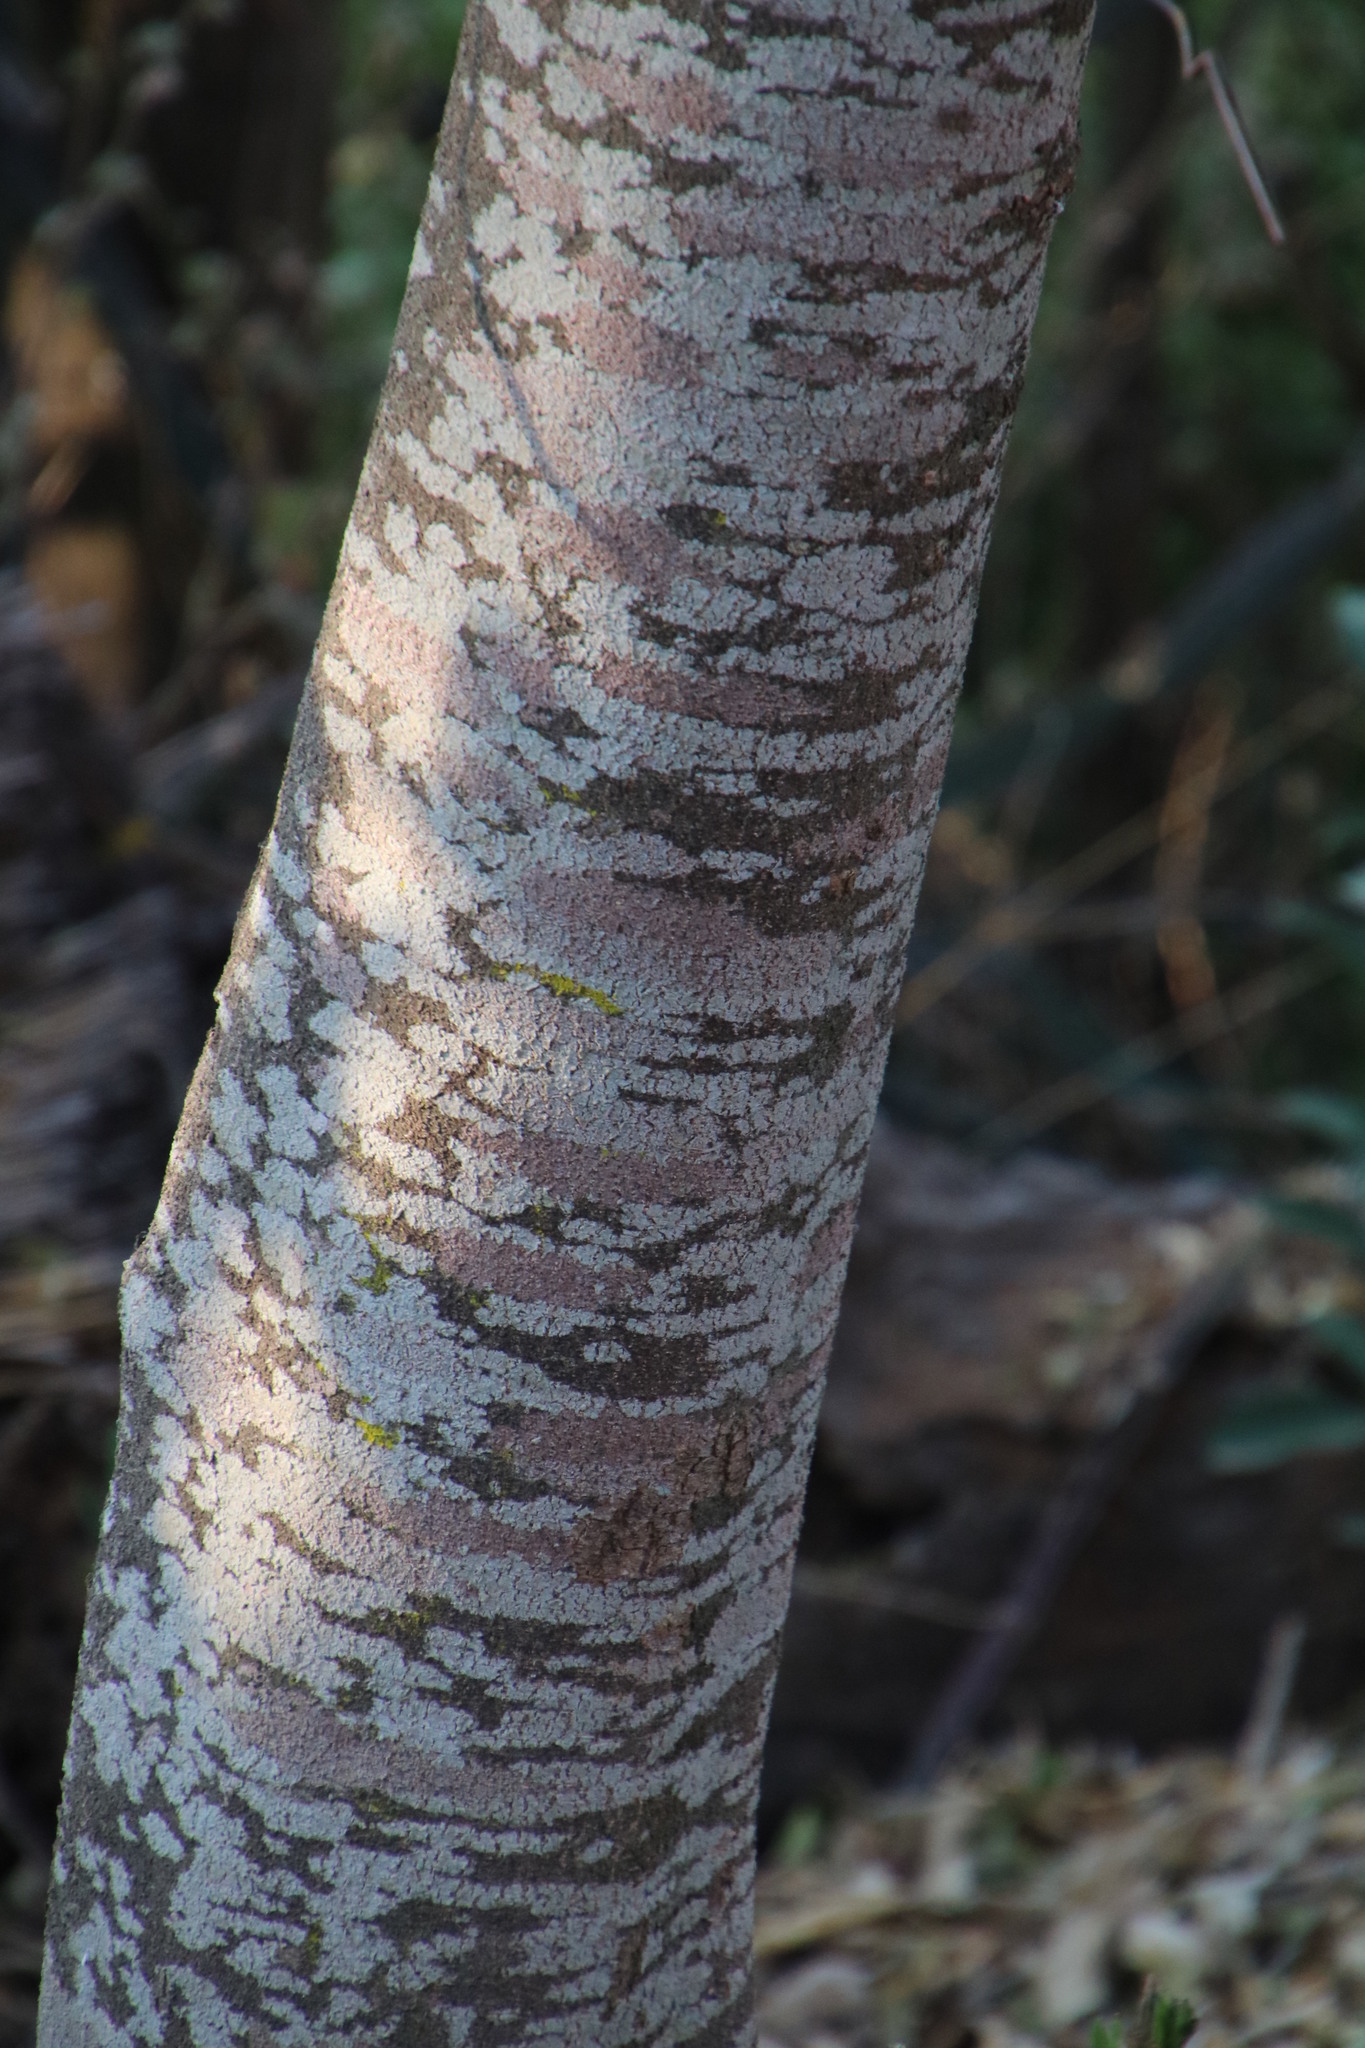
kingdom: Plantae
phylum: Tracheophyta
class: Magnoliopsida
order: Brassicales
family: Capparaceae
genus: Maerua
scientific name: Maerua angolensis
